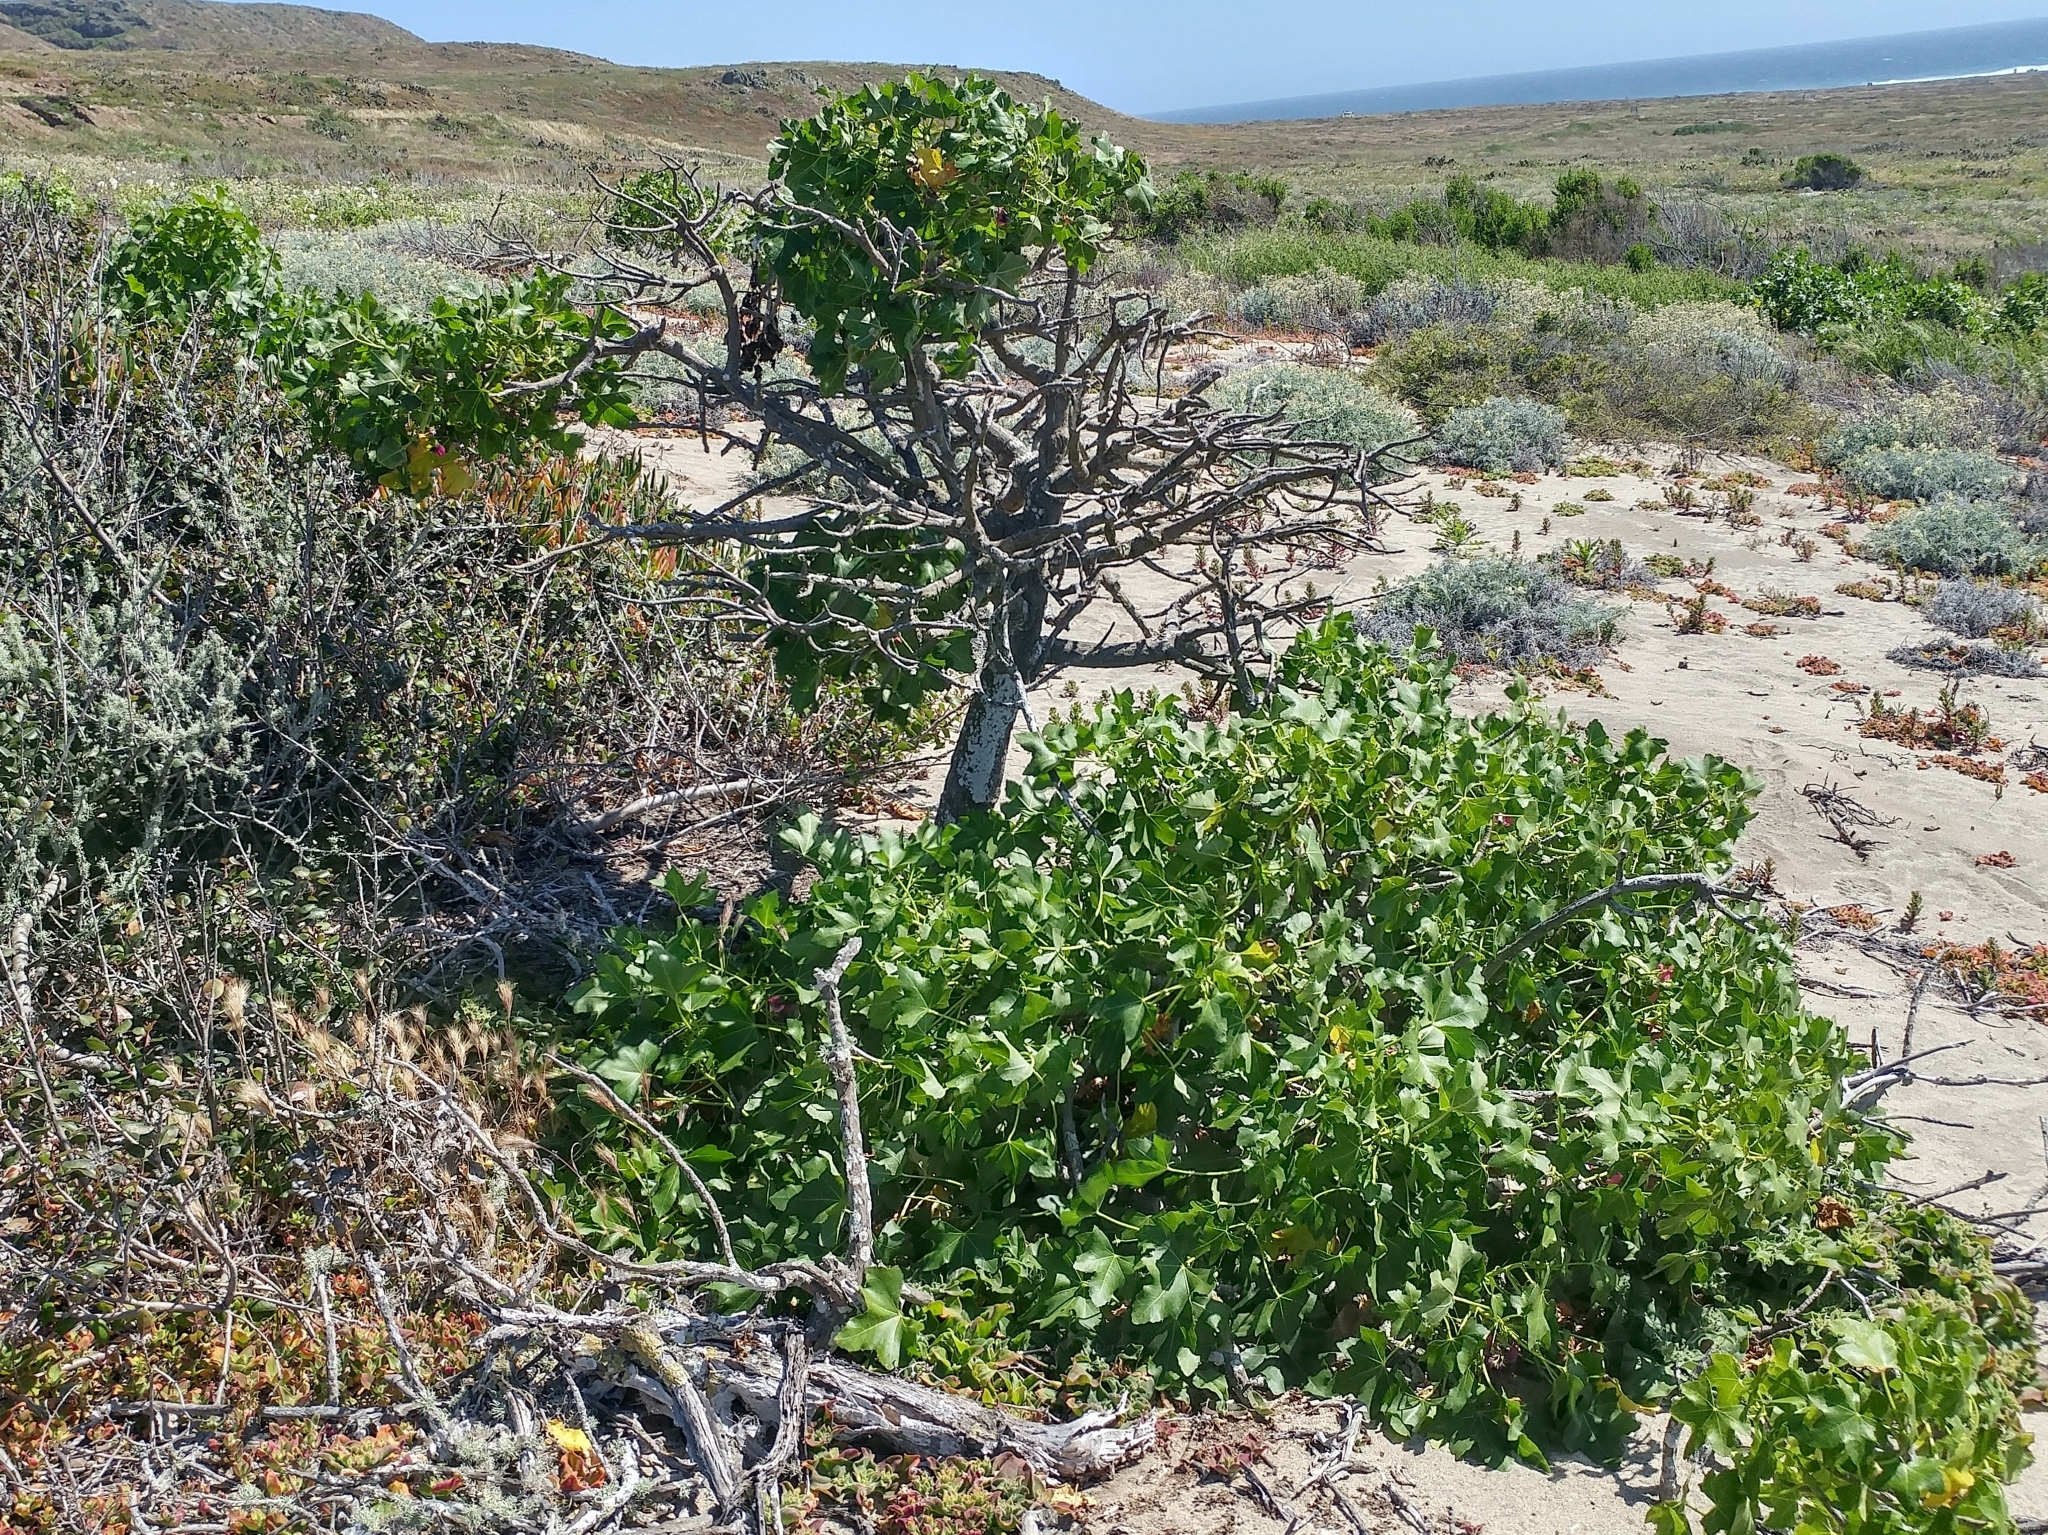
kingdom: Plantae
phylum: Tracheophyta
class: Magnoliopsida
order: Malvales
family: Malvaceae
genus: Malva
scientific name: Malva assurgentiflora
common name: Island mallow
